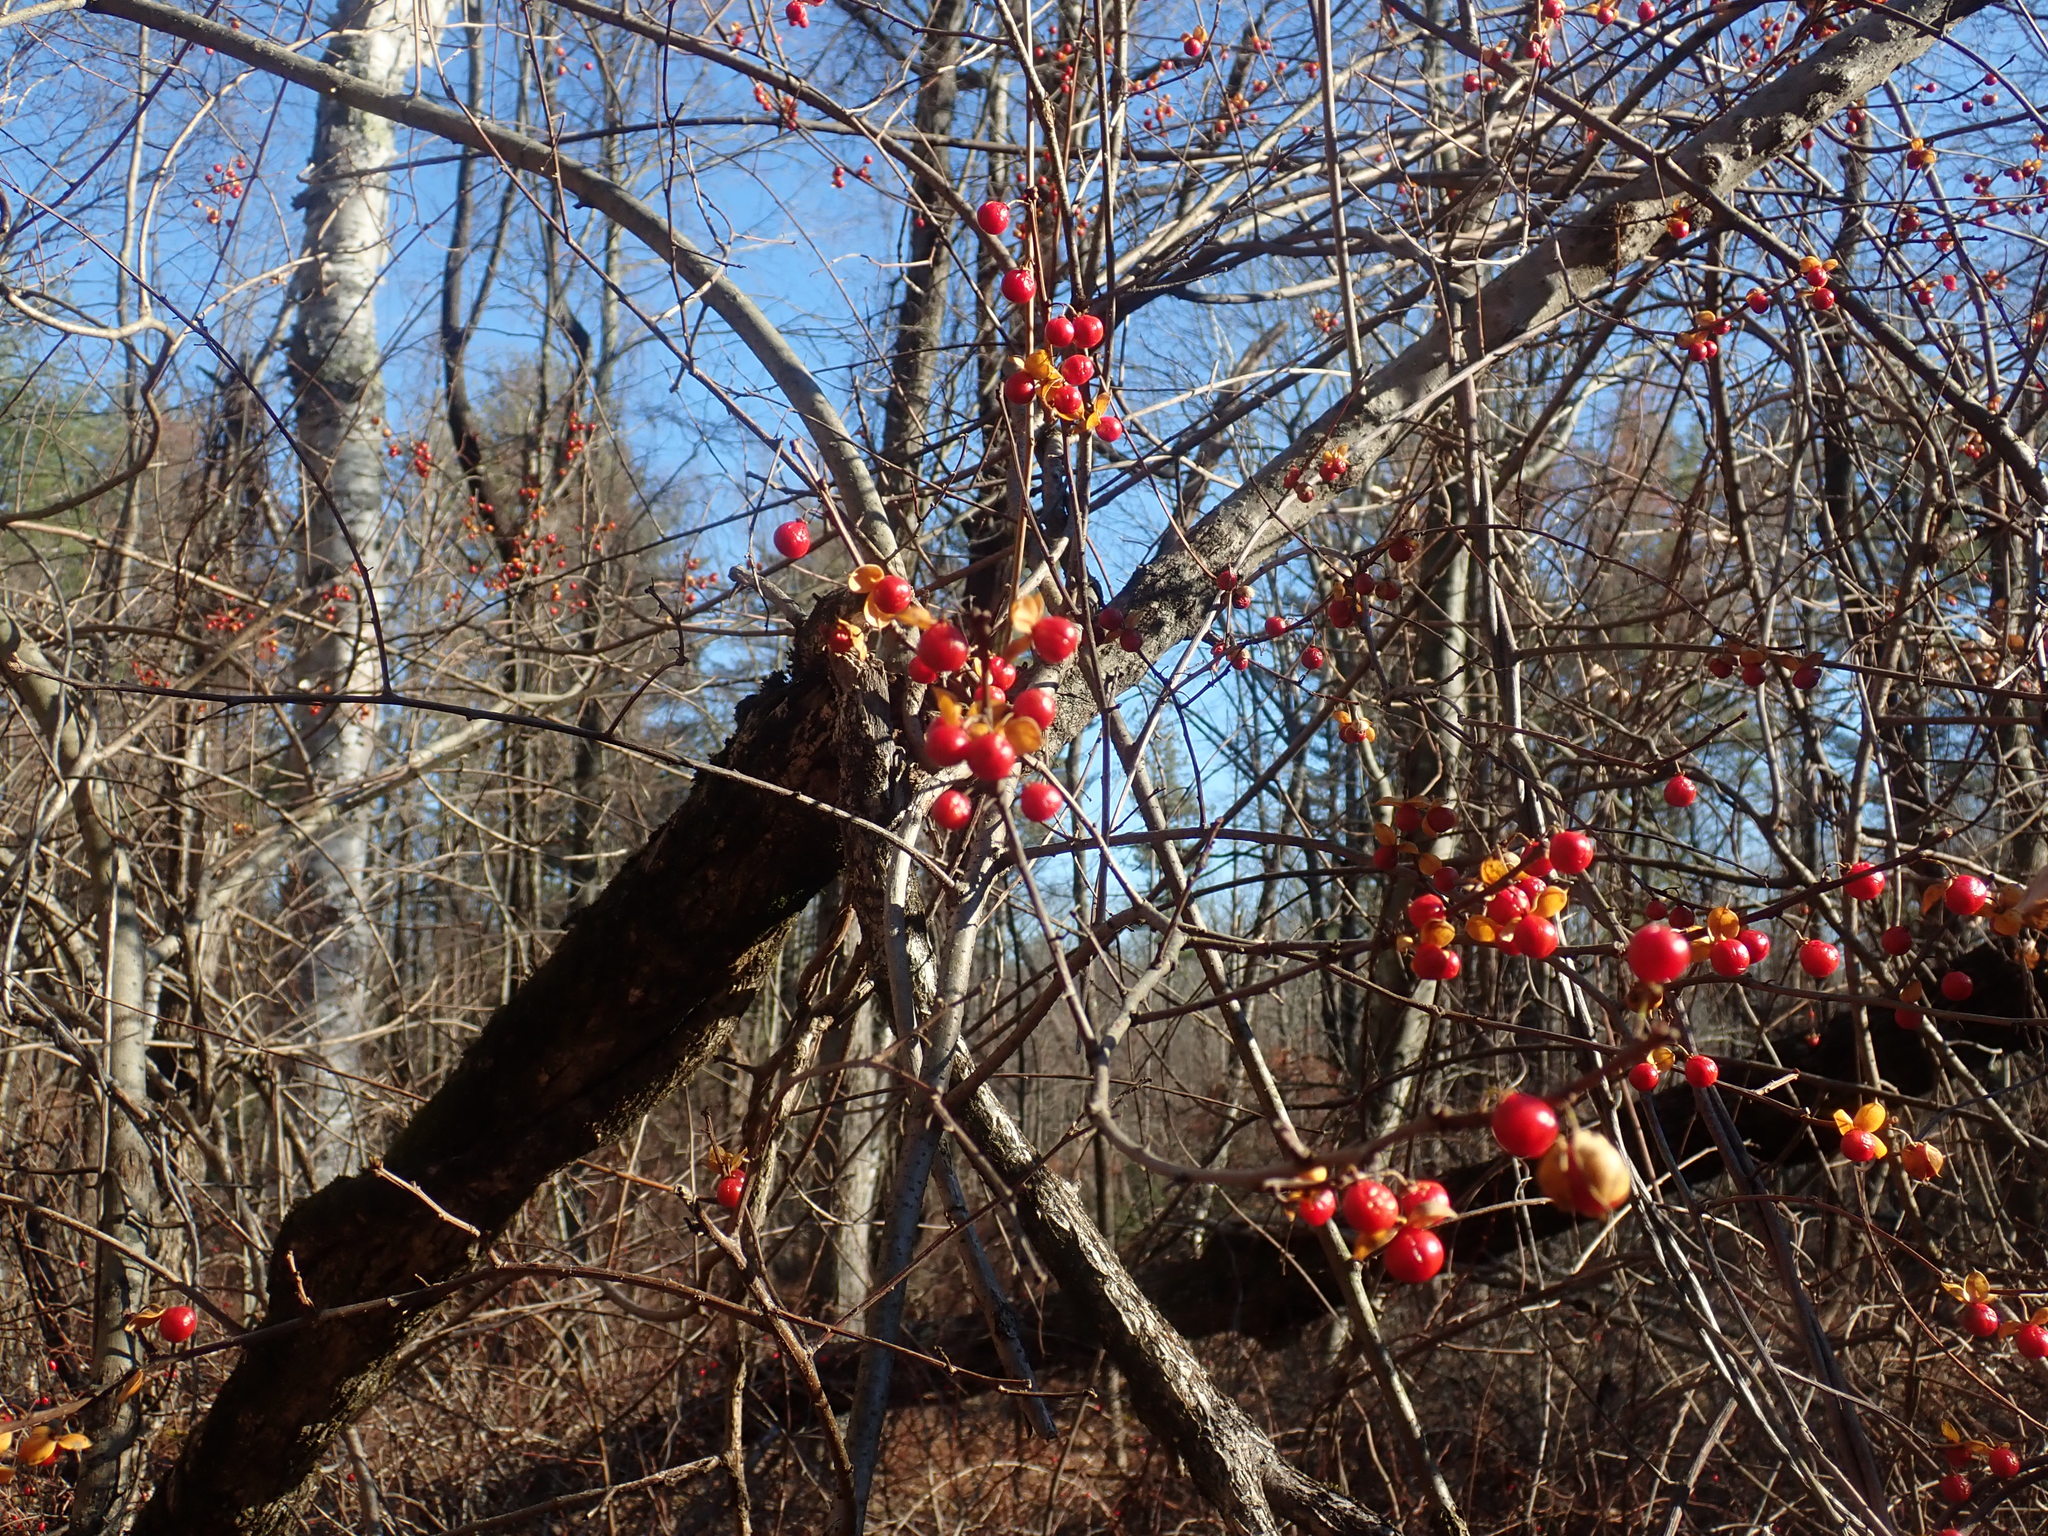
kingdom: Plantae
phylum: Tracheophyta
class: Magnoliopsida
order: Celastrales
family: Celastraceae
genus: Celastrus
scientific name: Celastrus orbiculatus
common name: Oriental bittersweet
